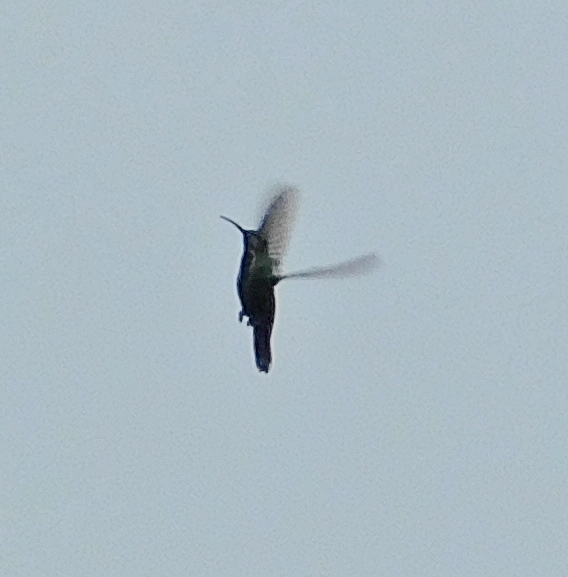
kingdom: Animalia
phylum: Chordata
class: Aves
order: Apodiformes
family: Trochilidae
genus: Anthracothorax
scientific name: Anthracothorax prevostii
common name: Green-breasted mango
